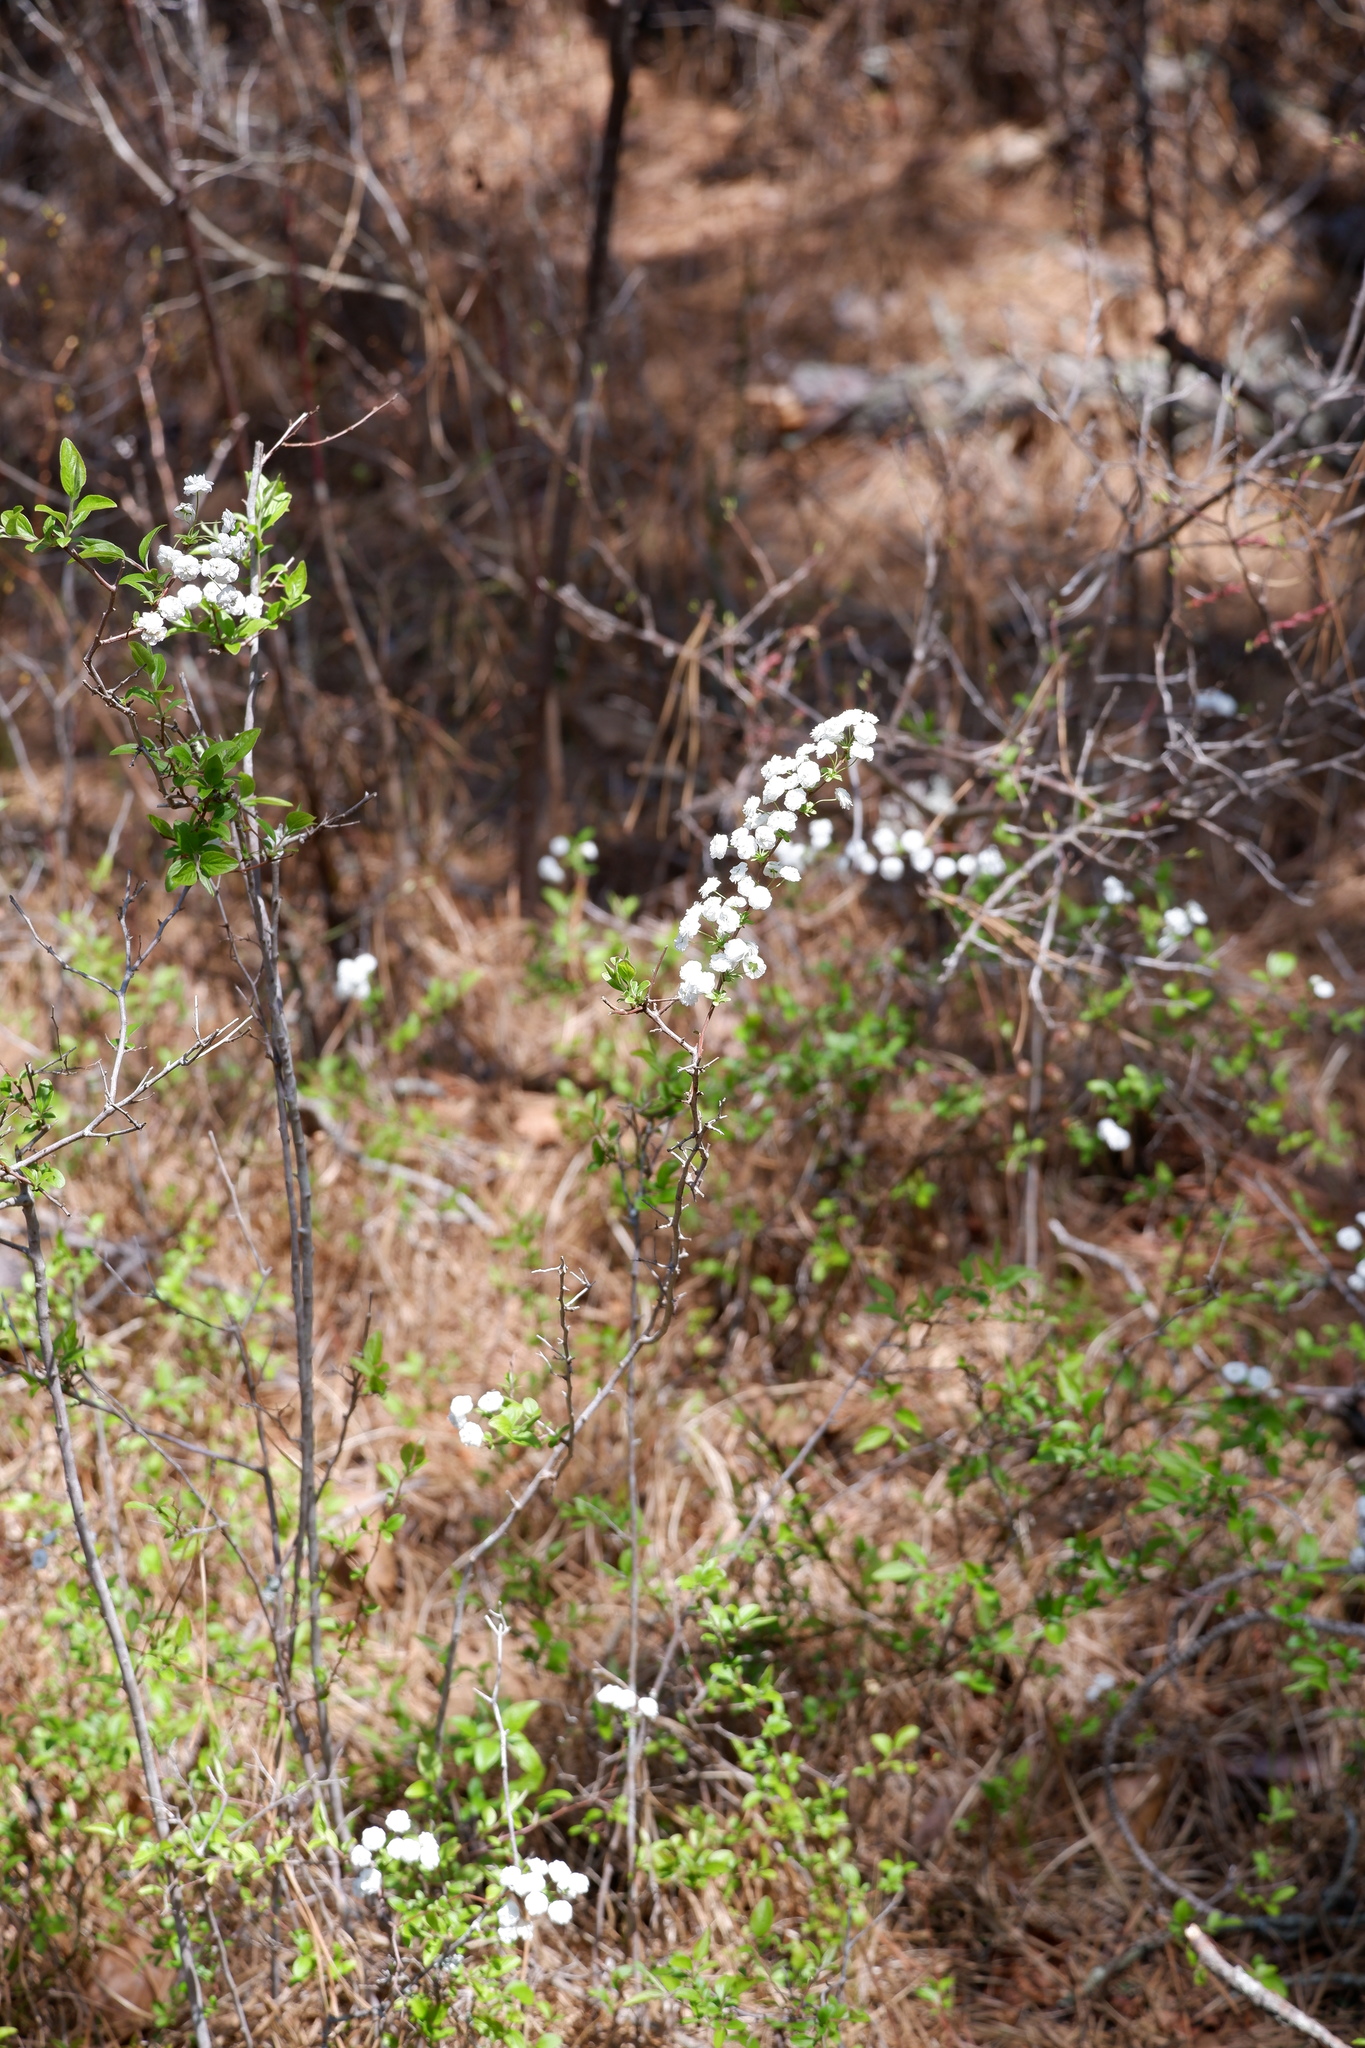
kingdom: Plantae
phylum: Tracheophyta
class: Magnoliopsida
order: Rosales
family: Rosaceae
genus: Spiraea
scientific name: Spiraea prunifolia
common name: Bridal-wreath spiraea
